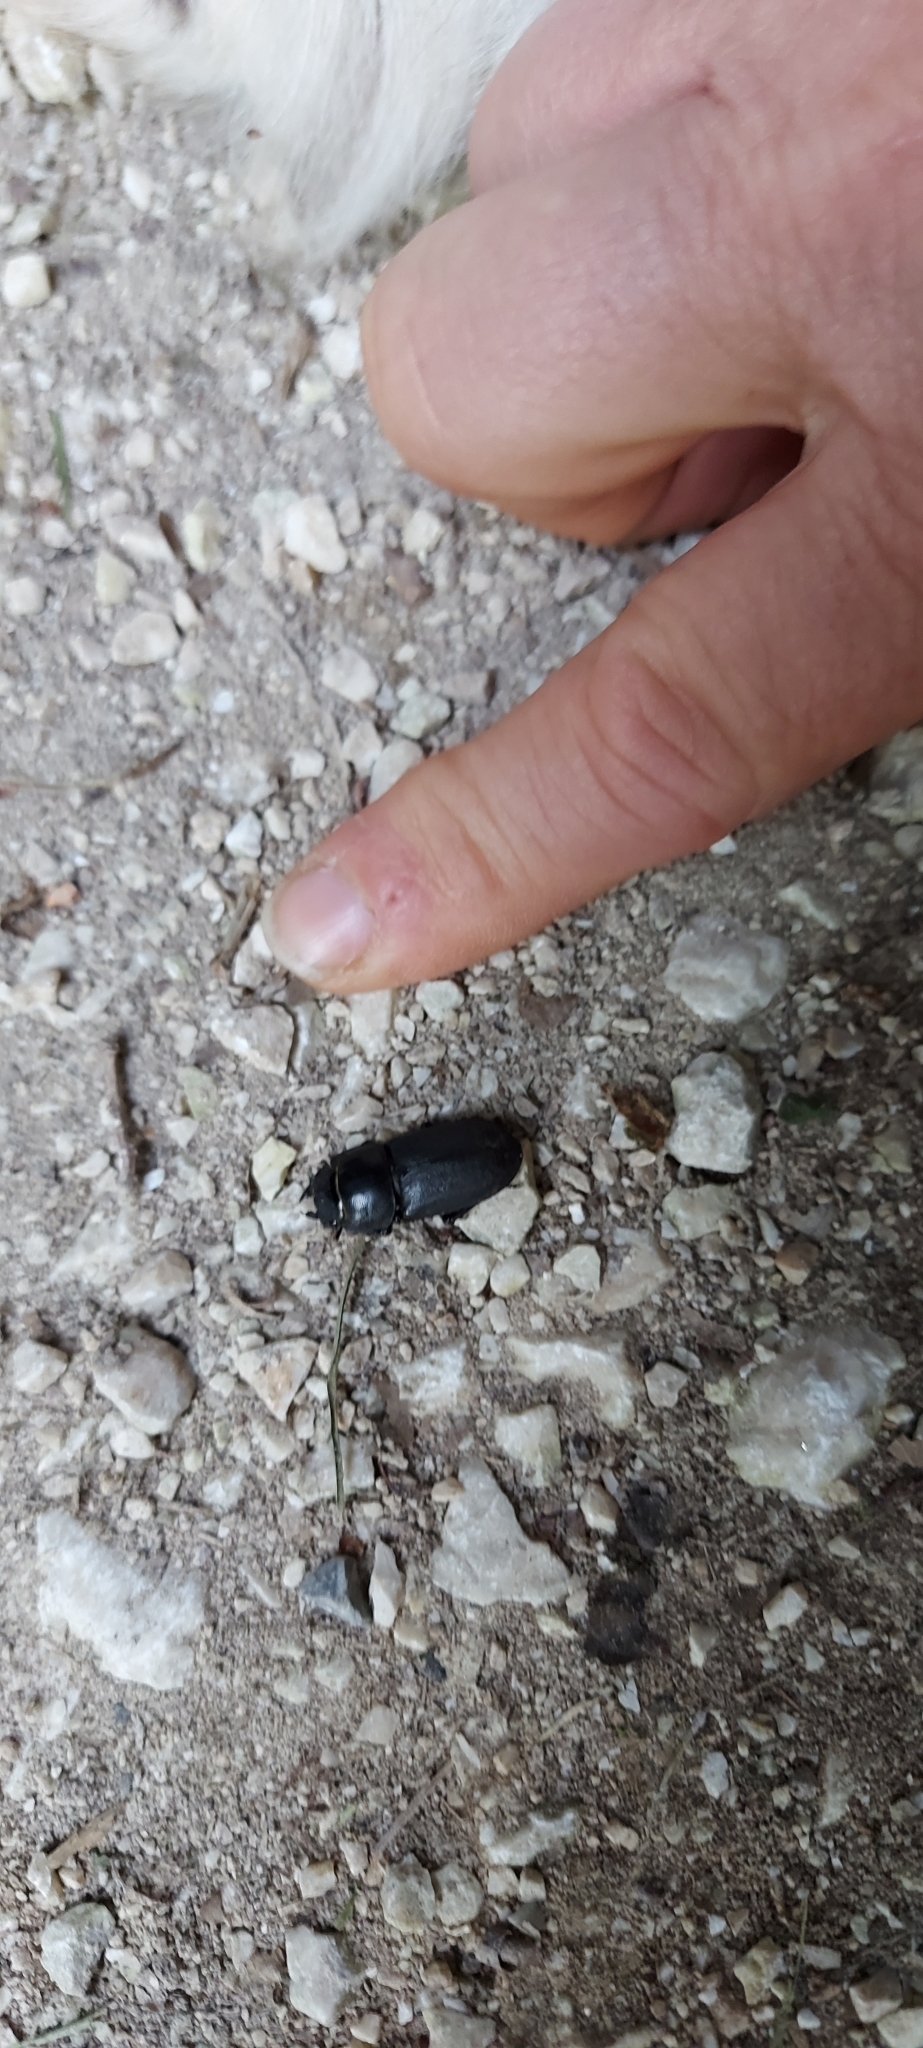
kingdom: Animalia
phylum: Arthropoda
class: Insecta
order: Coleoptera
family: Lucanidae
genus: Dorcus
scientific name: Dorcus parallelipipedus
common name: Lesser stag beetle
